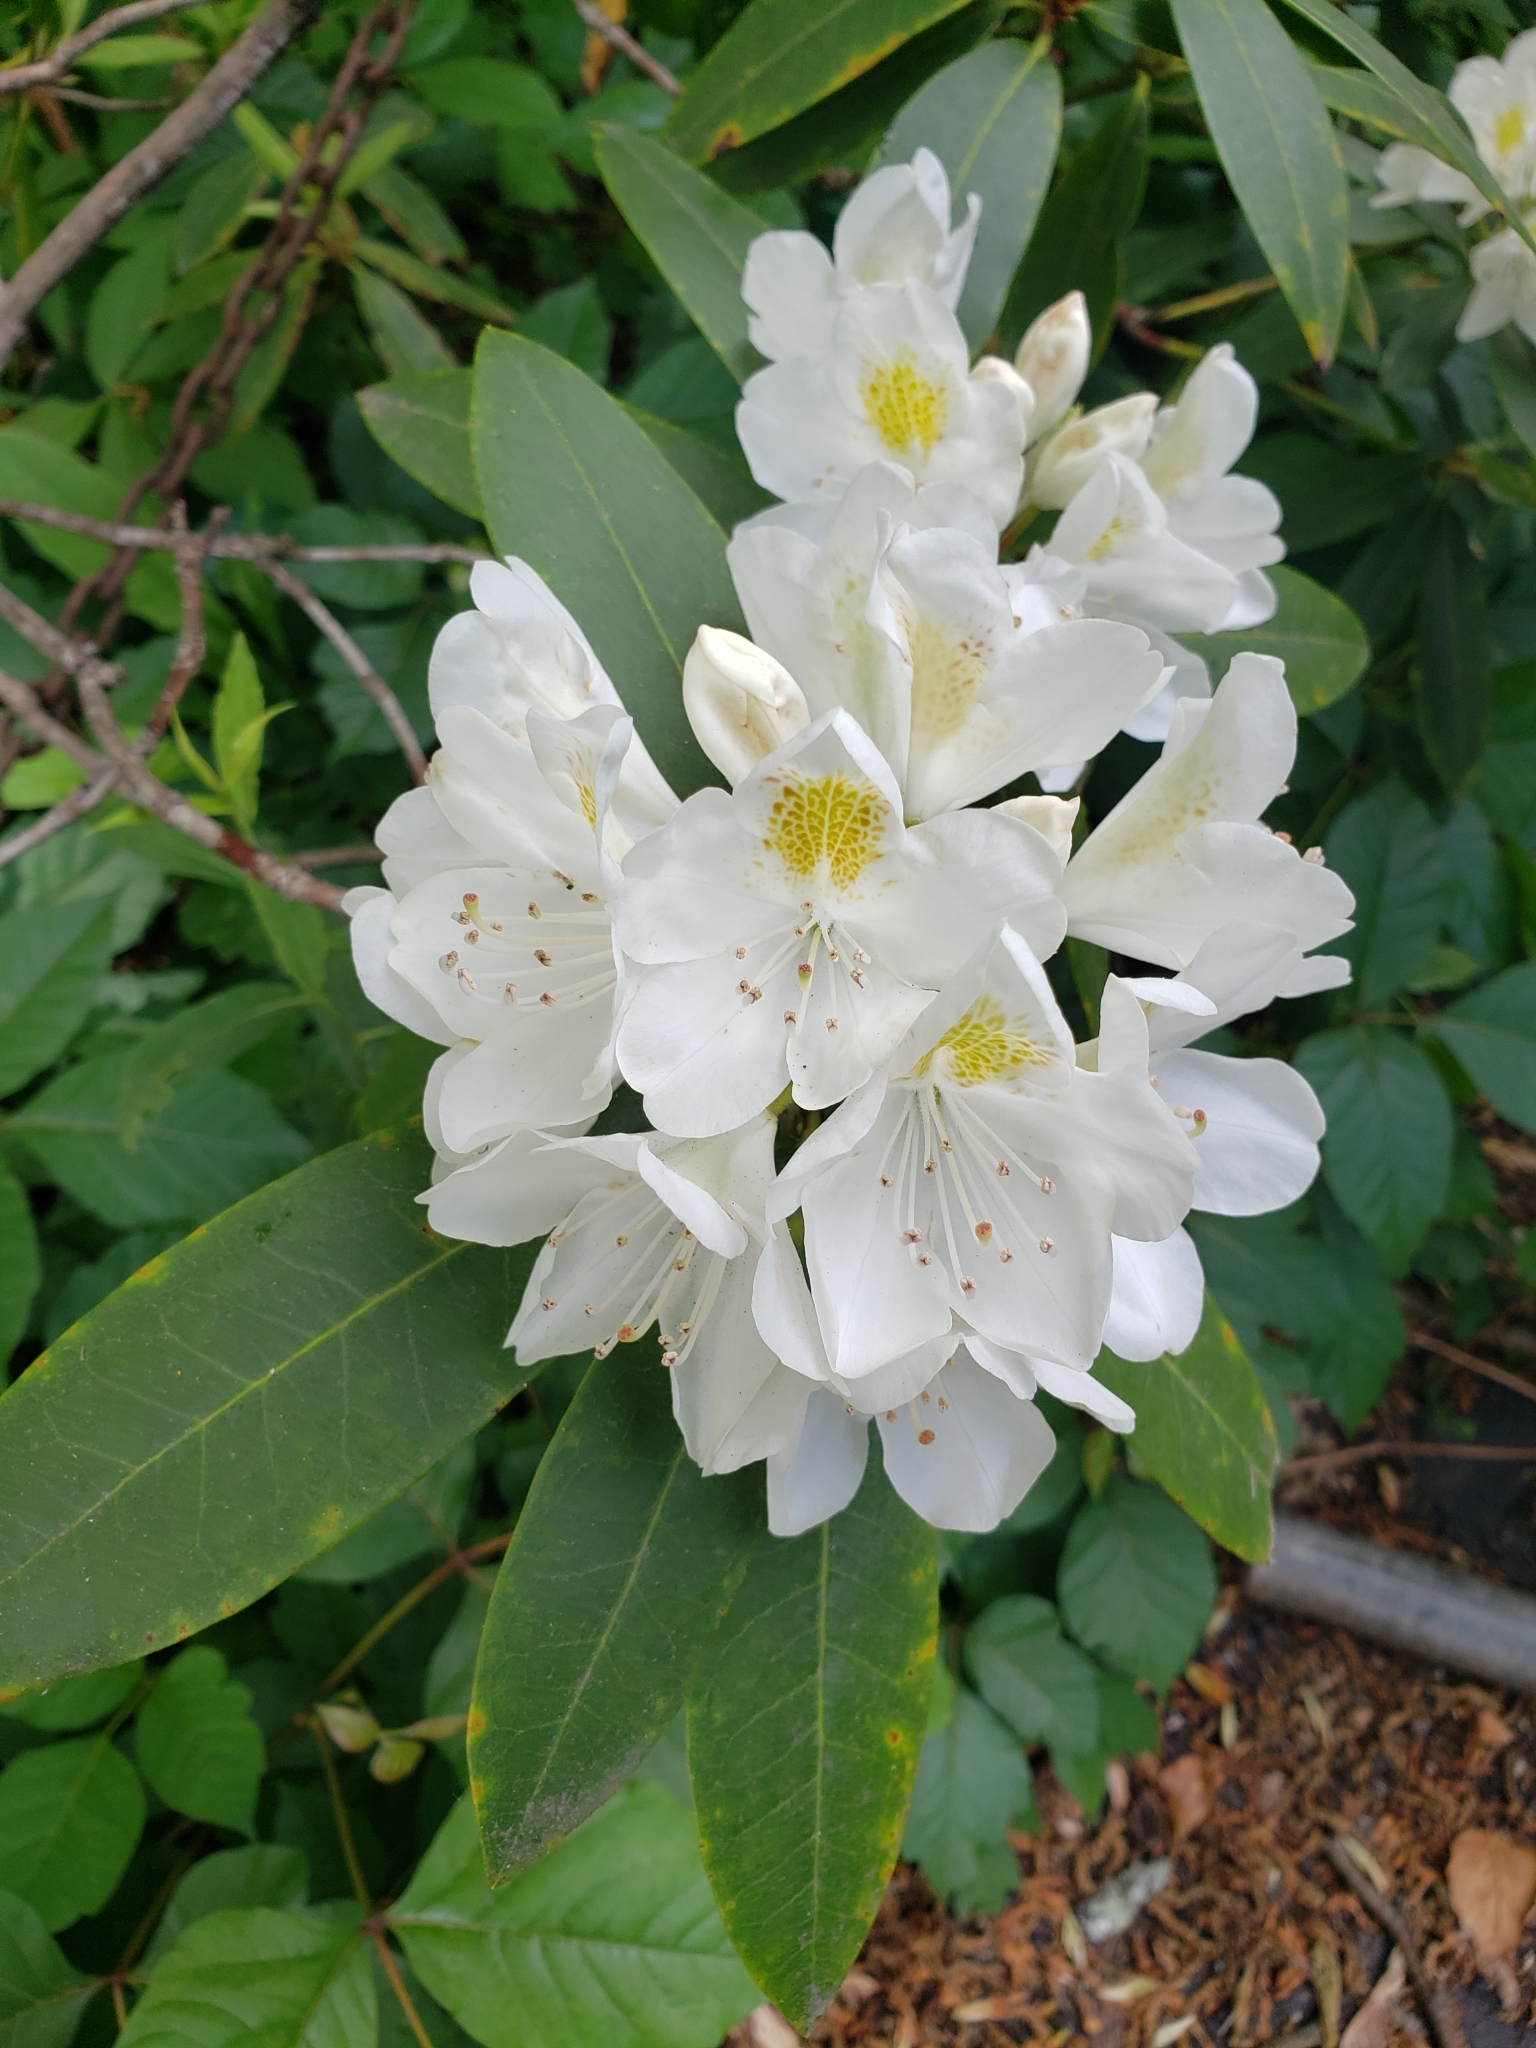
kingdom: Plantae
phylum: Tracheophyta
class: Magnoliopsida
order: Ericales
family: Ericaceae
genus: Rhododendron
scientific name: Rhododendron maximum
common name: Great rhododendron
